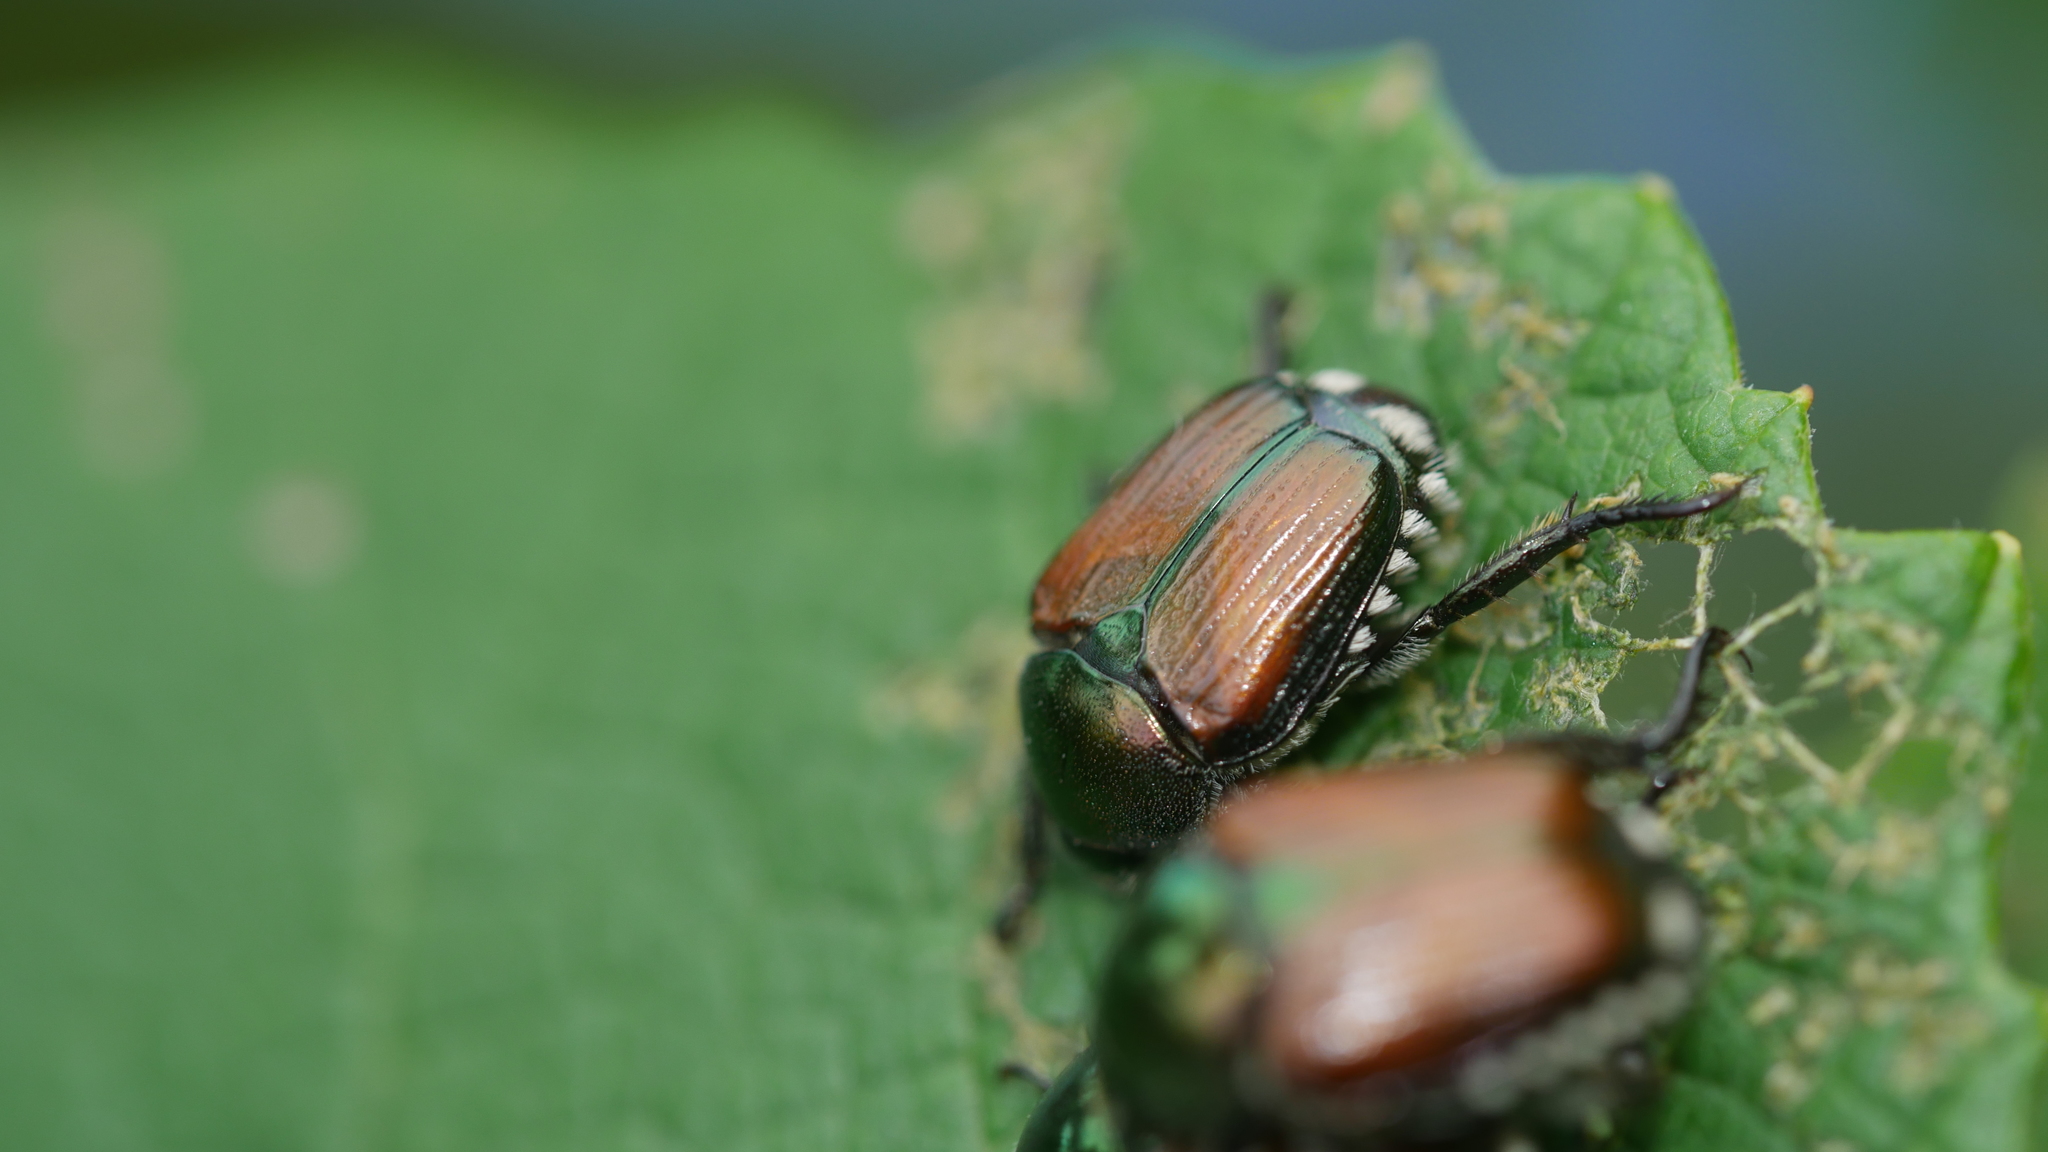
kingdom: Animalia
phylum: Arthropoda
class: Insecta
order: Coleoptera
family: Scarabaeidae
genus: Popillia
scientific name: Popillia japonica
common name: Japanese beetle
